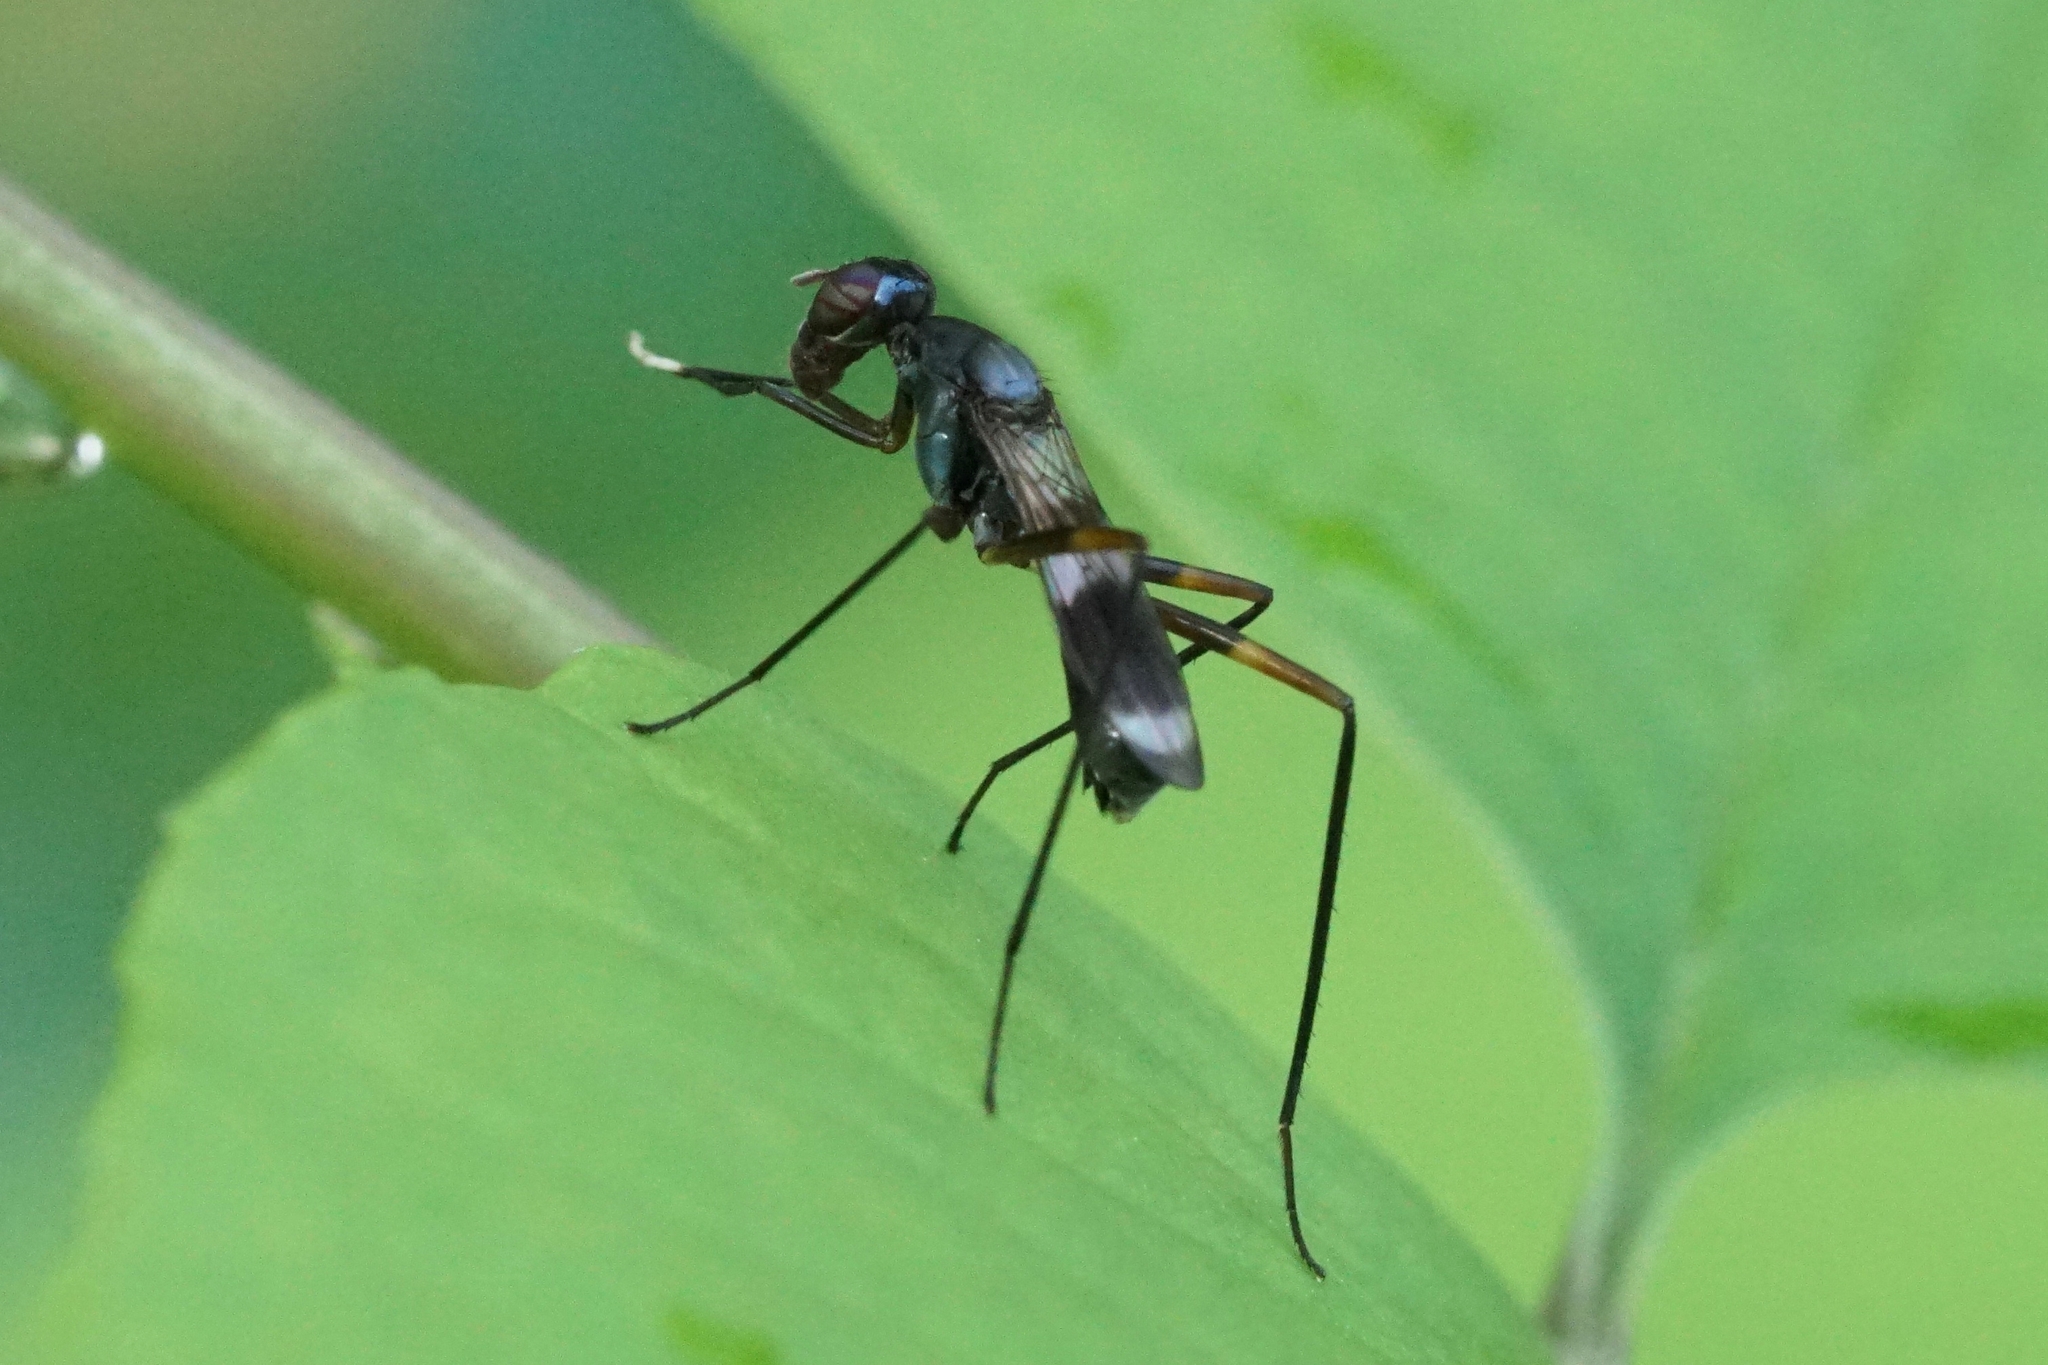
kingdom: Animalia
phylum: Arthropoda
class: Insecta
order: Diptera
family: Micropezidae
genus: Taeniaptera
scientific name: Taeniaptera trivittata
